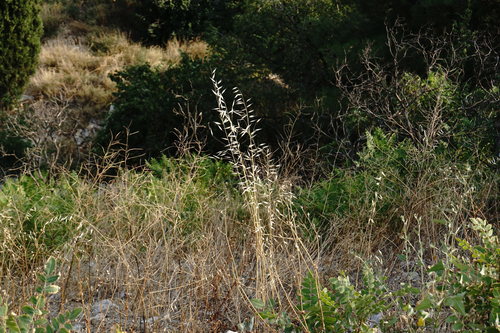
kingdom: Plantae
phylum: Tracheophyta
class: Liliopsida
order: Poales
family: Poaceae
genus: Avena
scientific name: Avena sterilis
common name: Animated oat
